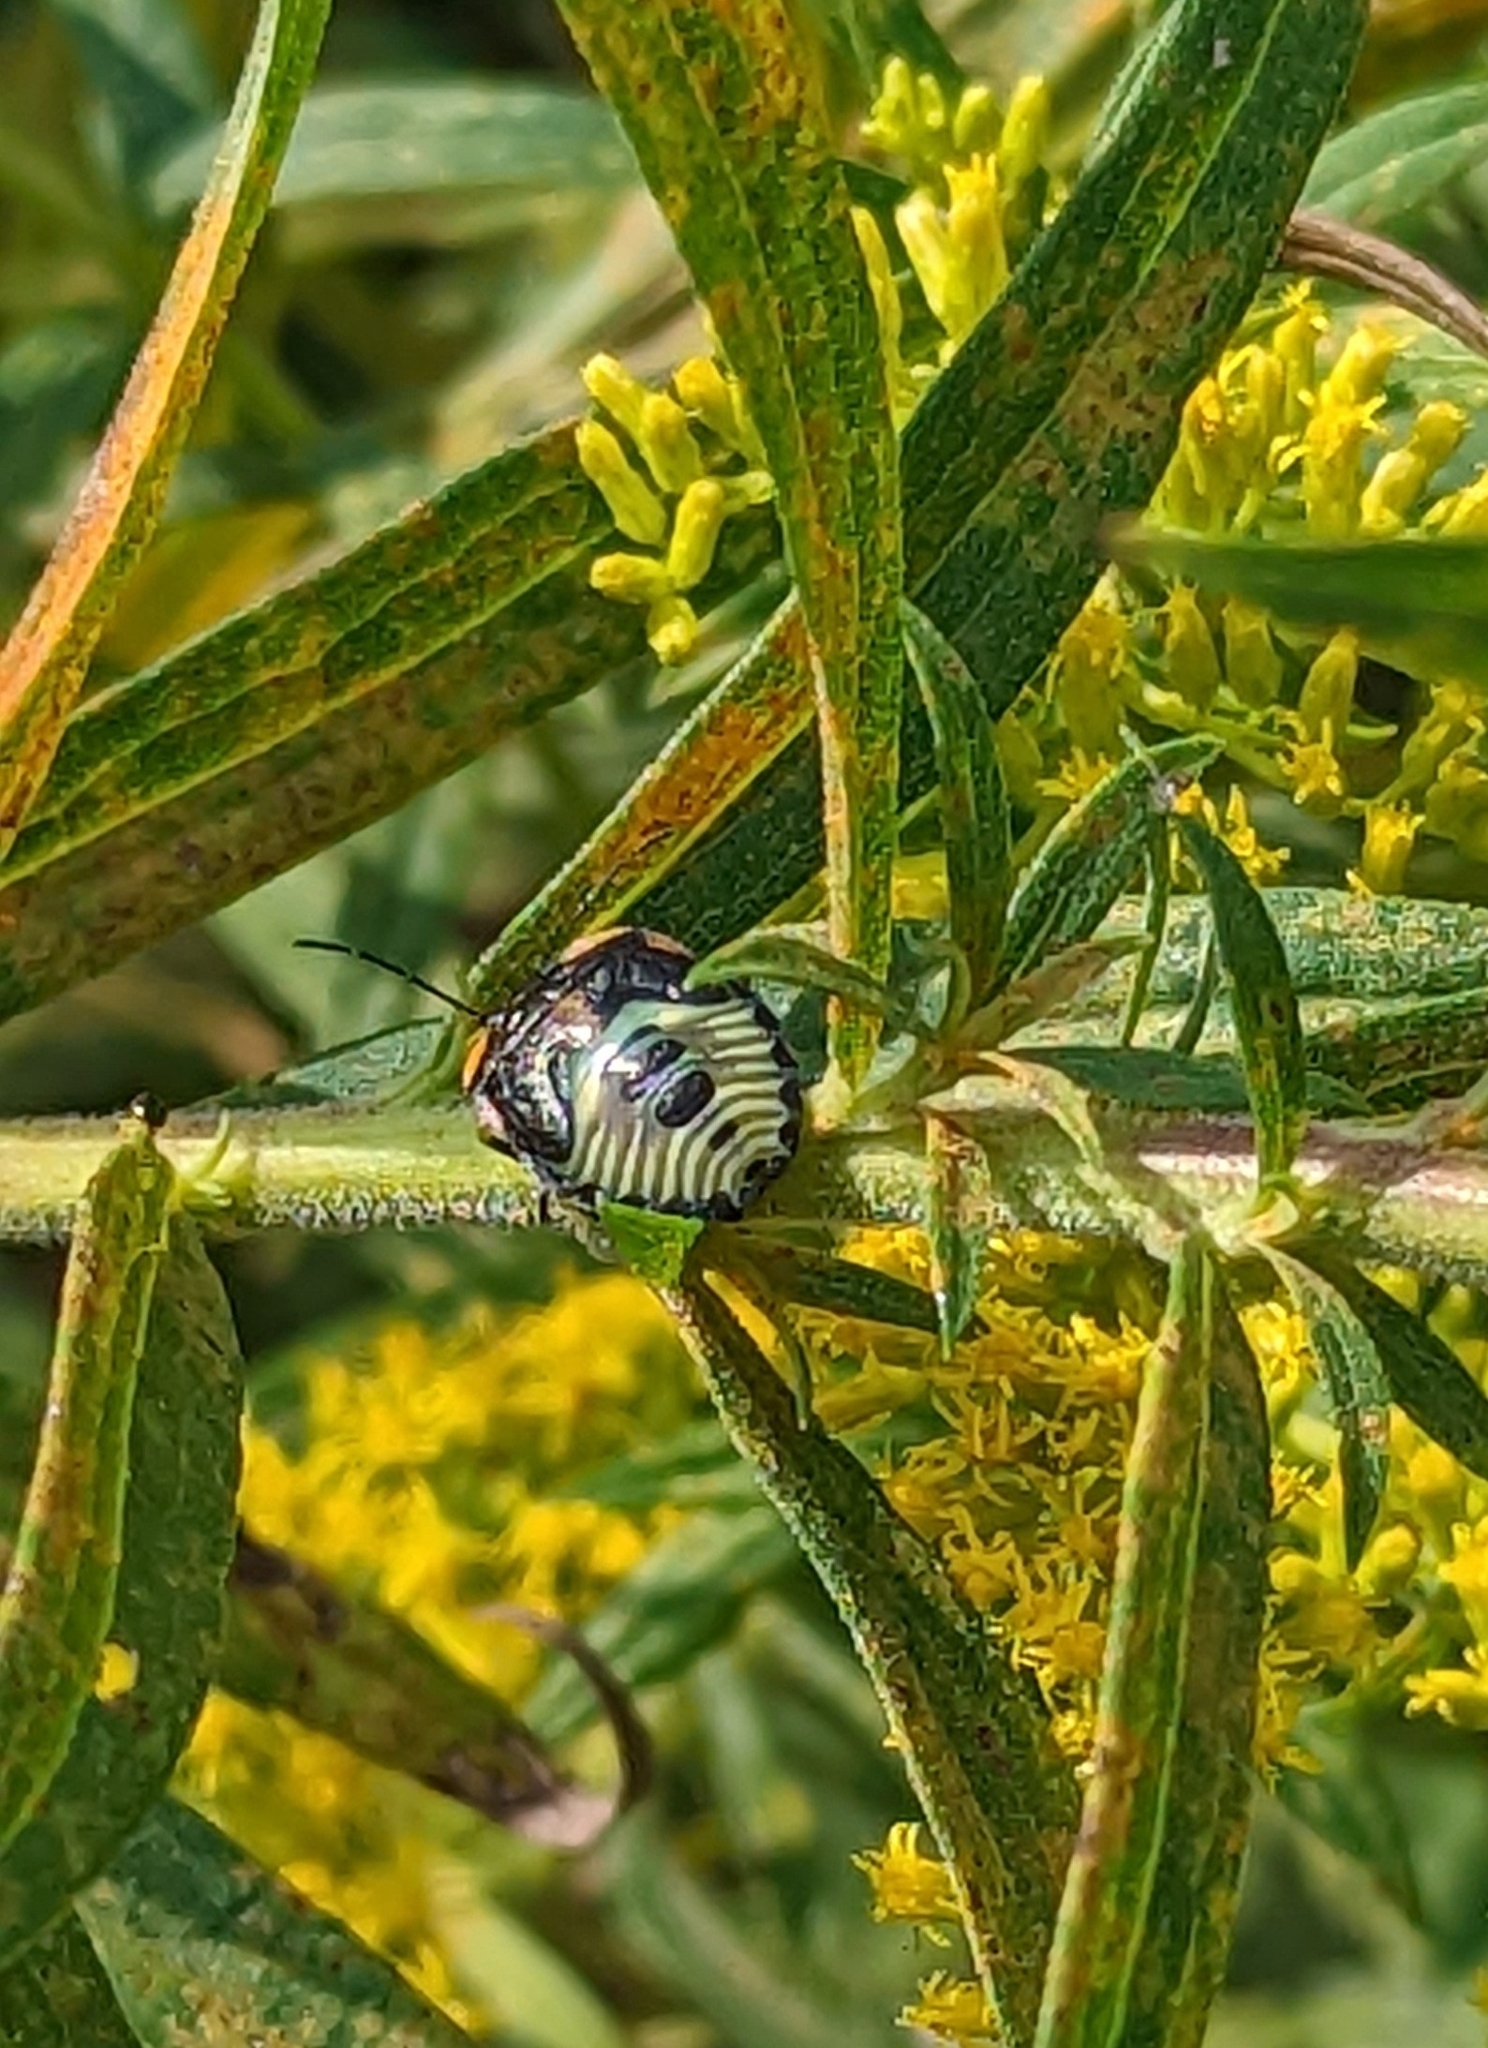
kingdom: Animalia
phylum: Arthropoda
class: Insecta
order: Hemiptera
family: Pentatomidae
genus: Chinavia
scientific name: Chinavia hilaris
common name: Green stink bug
